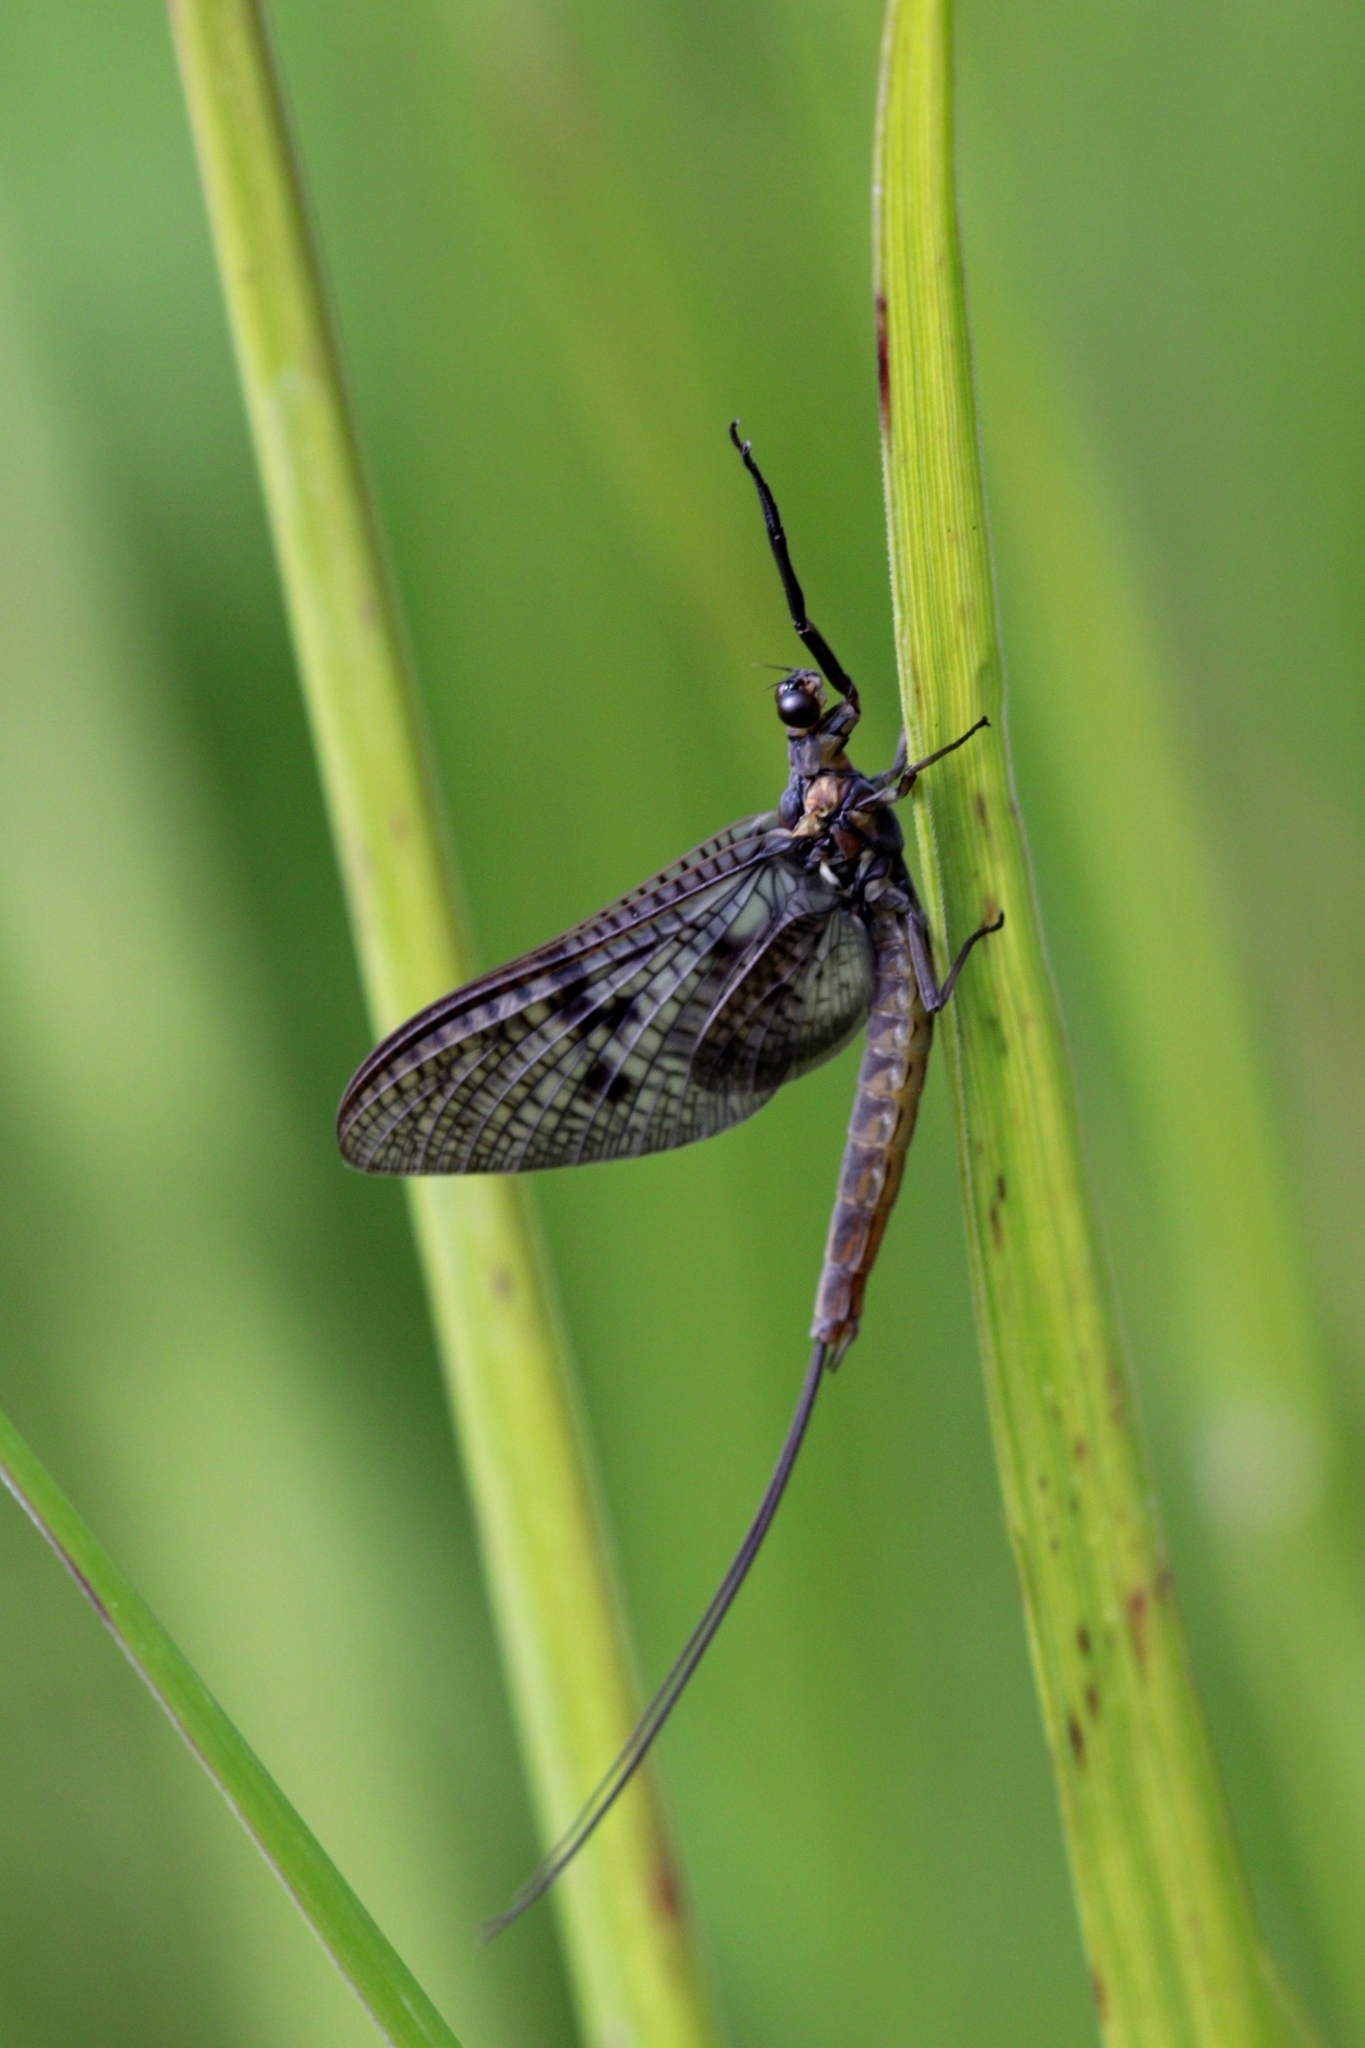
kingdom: Animalia
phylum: Arthropoda
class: Insecta
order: Ephemeroptera
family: Ephemeridae
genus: Ephemera
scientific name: Ephemera vulgata
